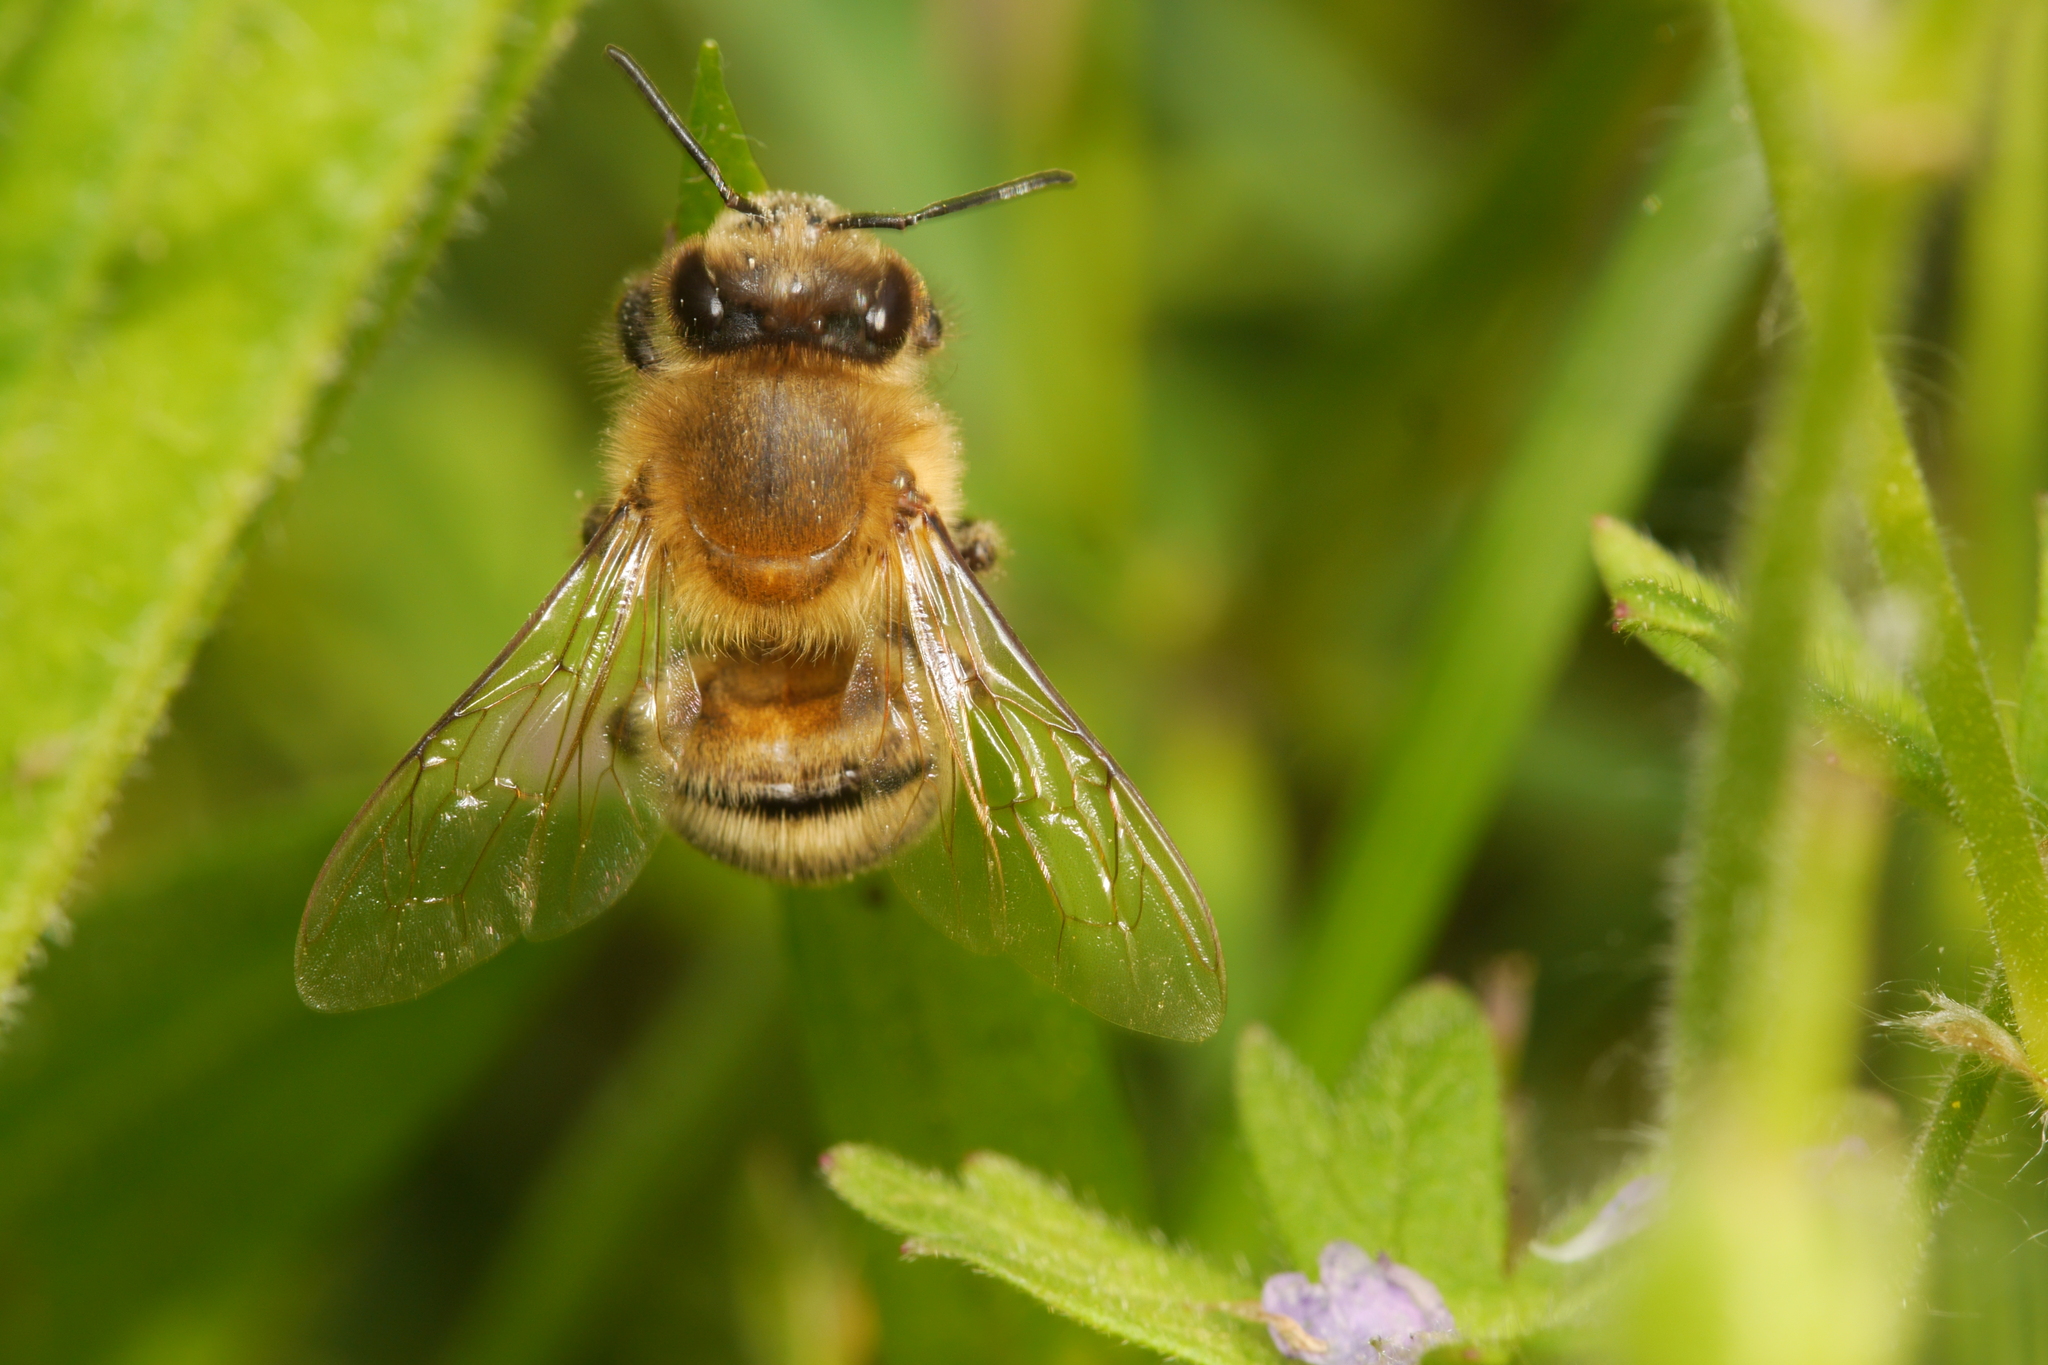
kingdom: Animalia
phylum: Arthropoda
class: Insecta
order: Hymenoptera
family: Apidae
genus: Apis
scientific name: Apis mellifera
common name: Honey bee
